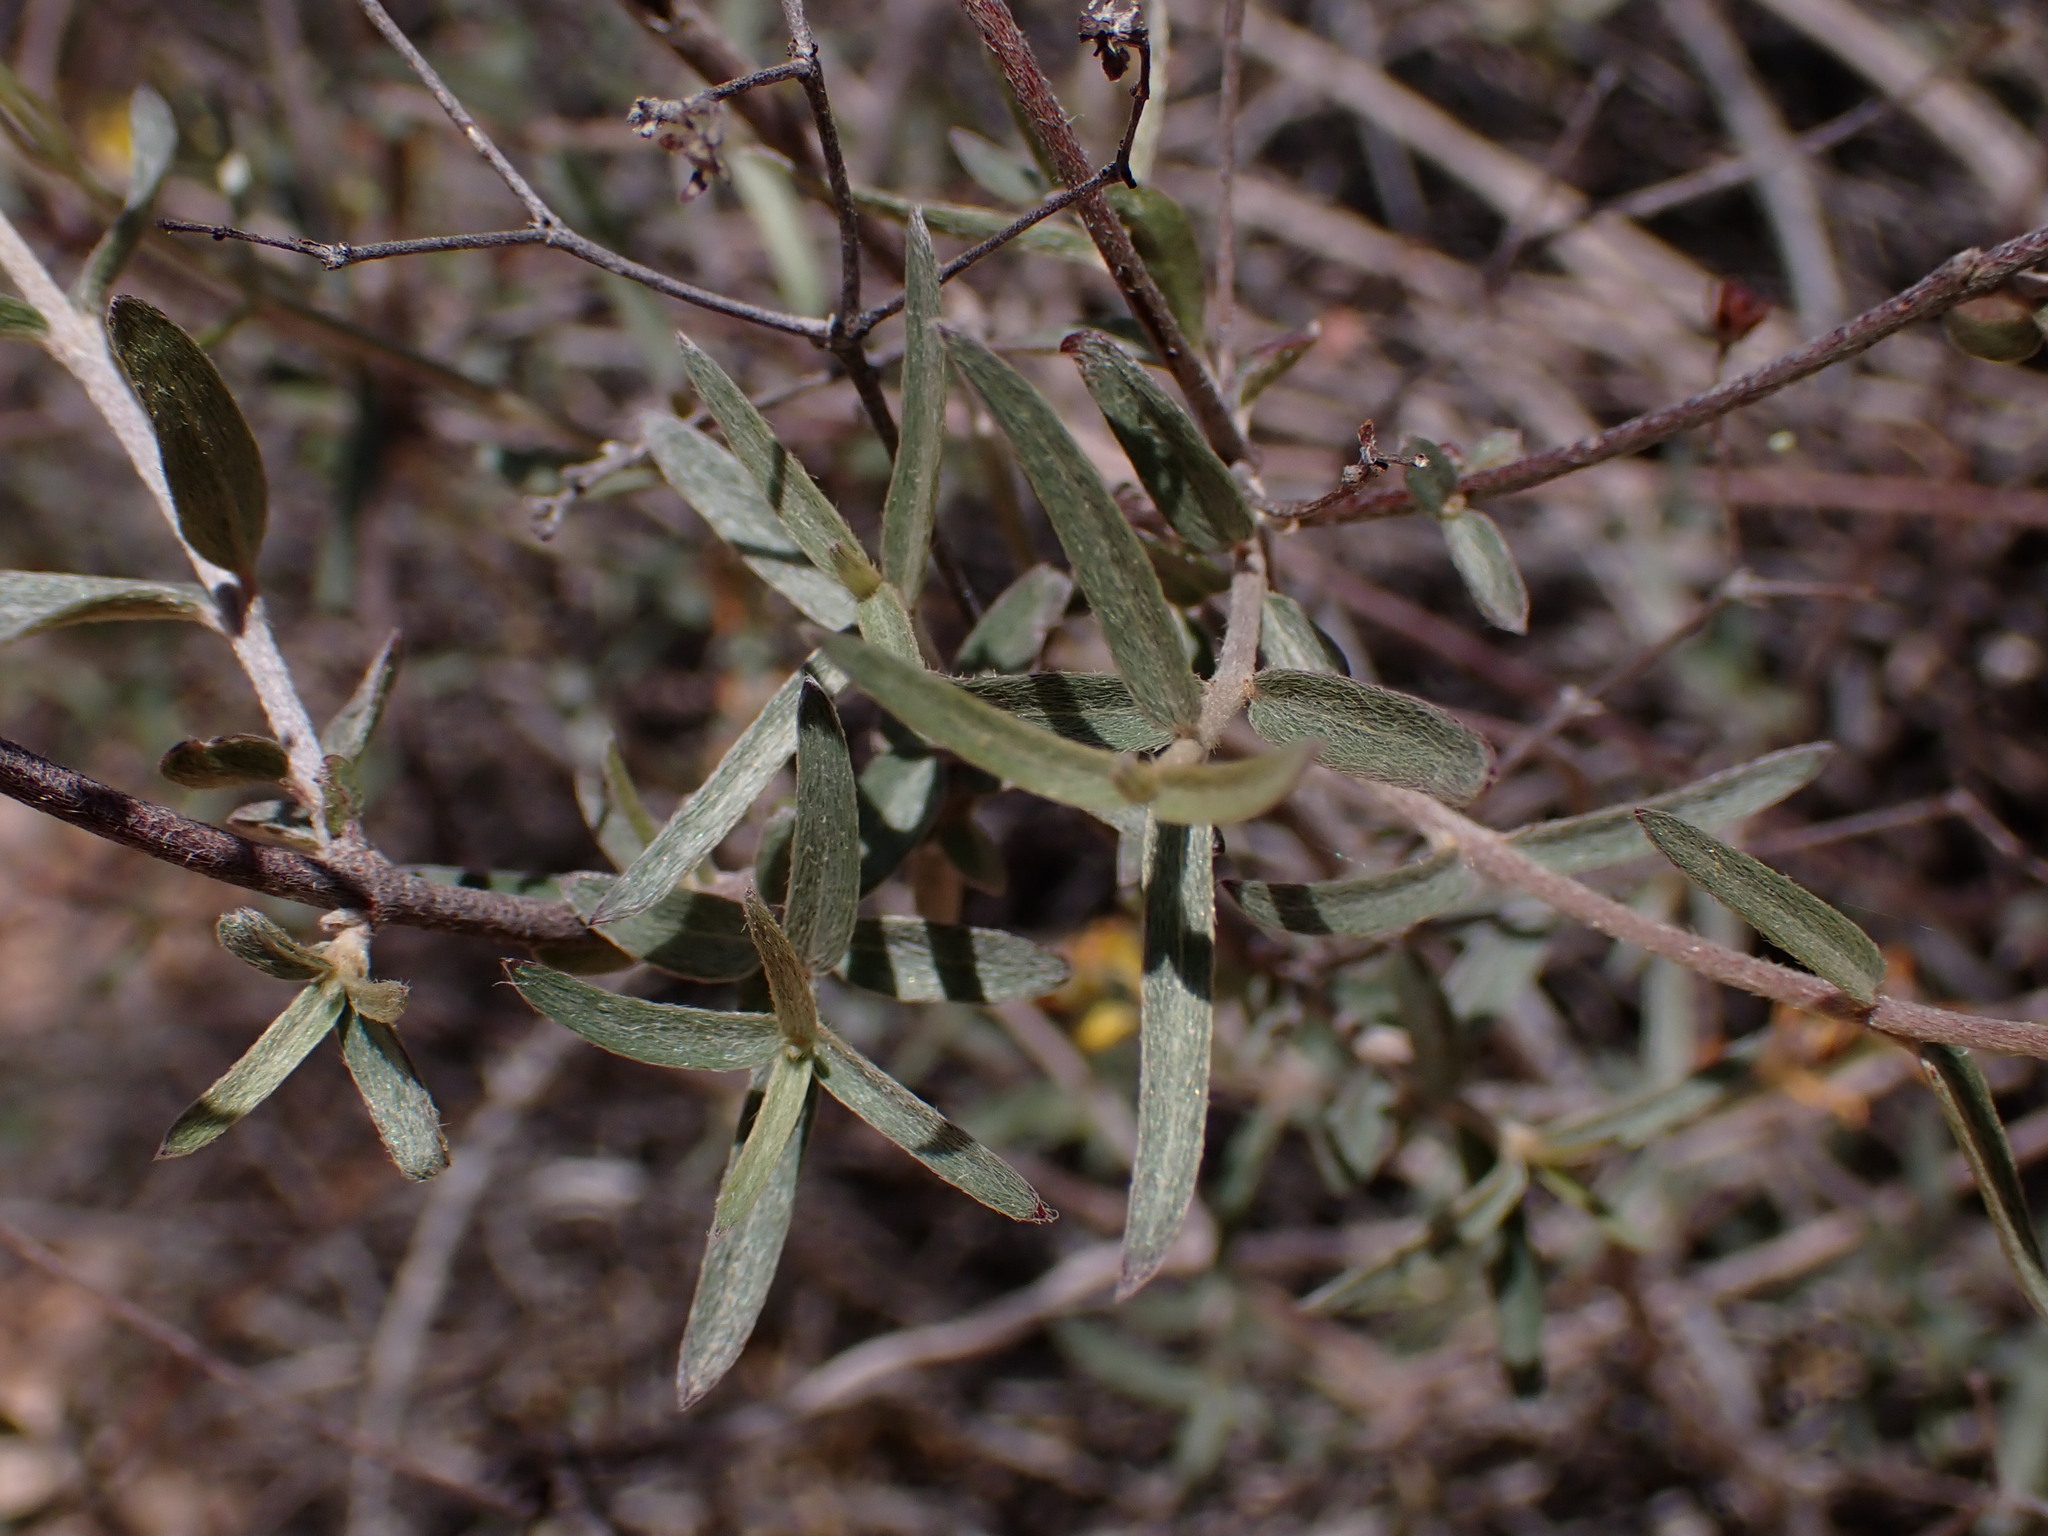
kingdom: Plantae
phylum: Tracheophyta
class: Magnoliopsida
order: Malpighiales
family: Malpighiaceae
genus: Cottsia
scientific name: Cottsia gracilis
